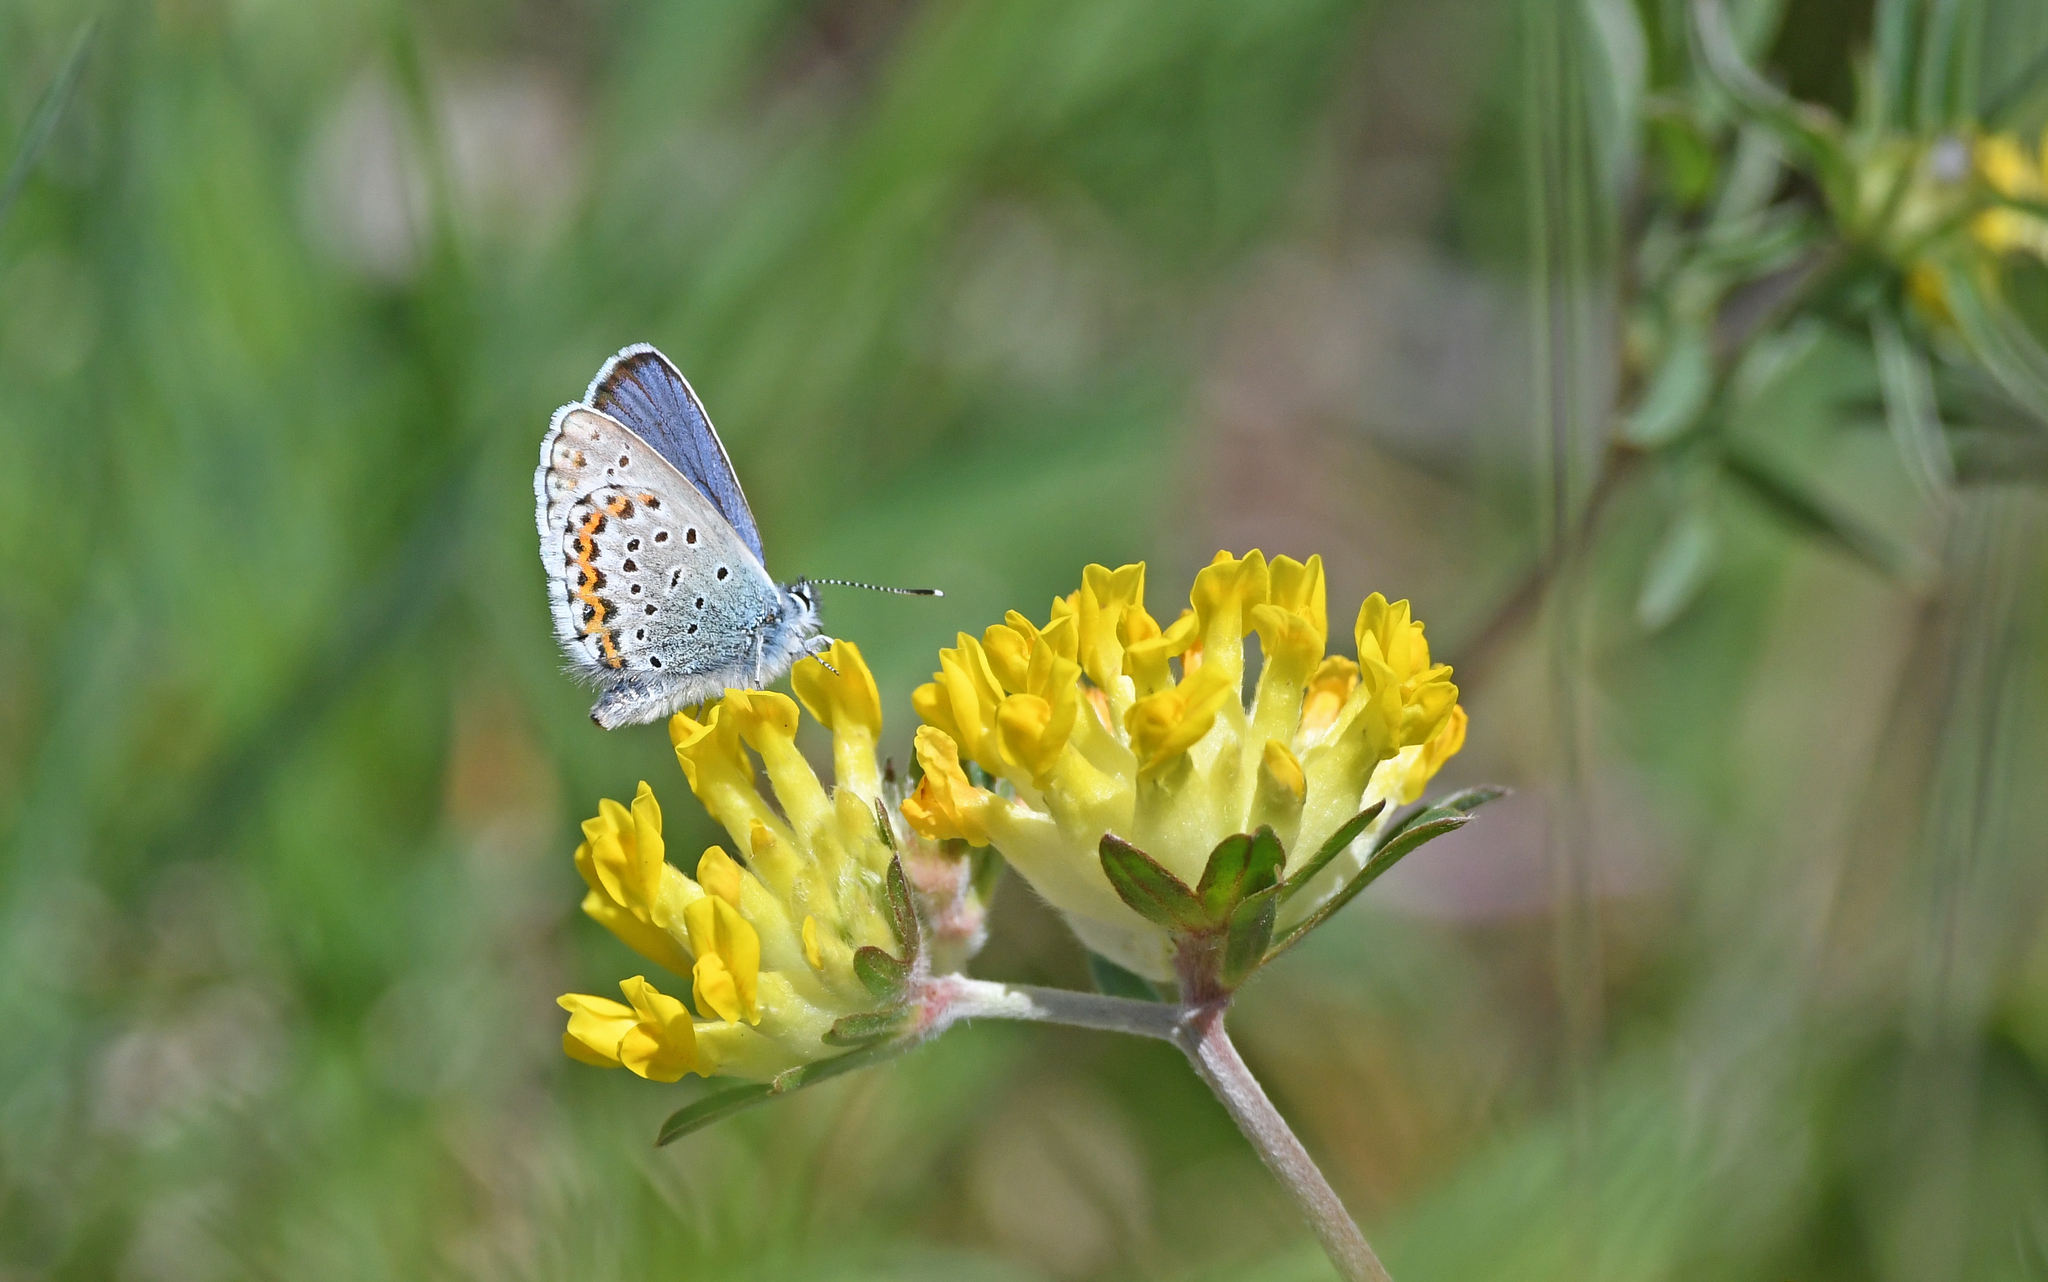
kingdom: Animalia
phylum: Arthropoda
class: Insecta
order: Lepidoptera
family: Lycaenidae
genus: Lycaeides
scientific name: Lycaeides idas
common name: Northern blue
